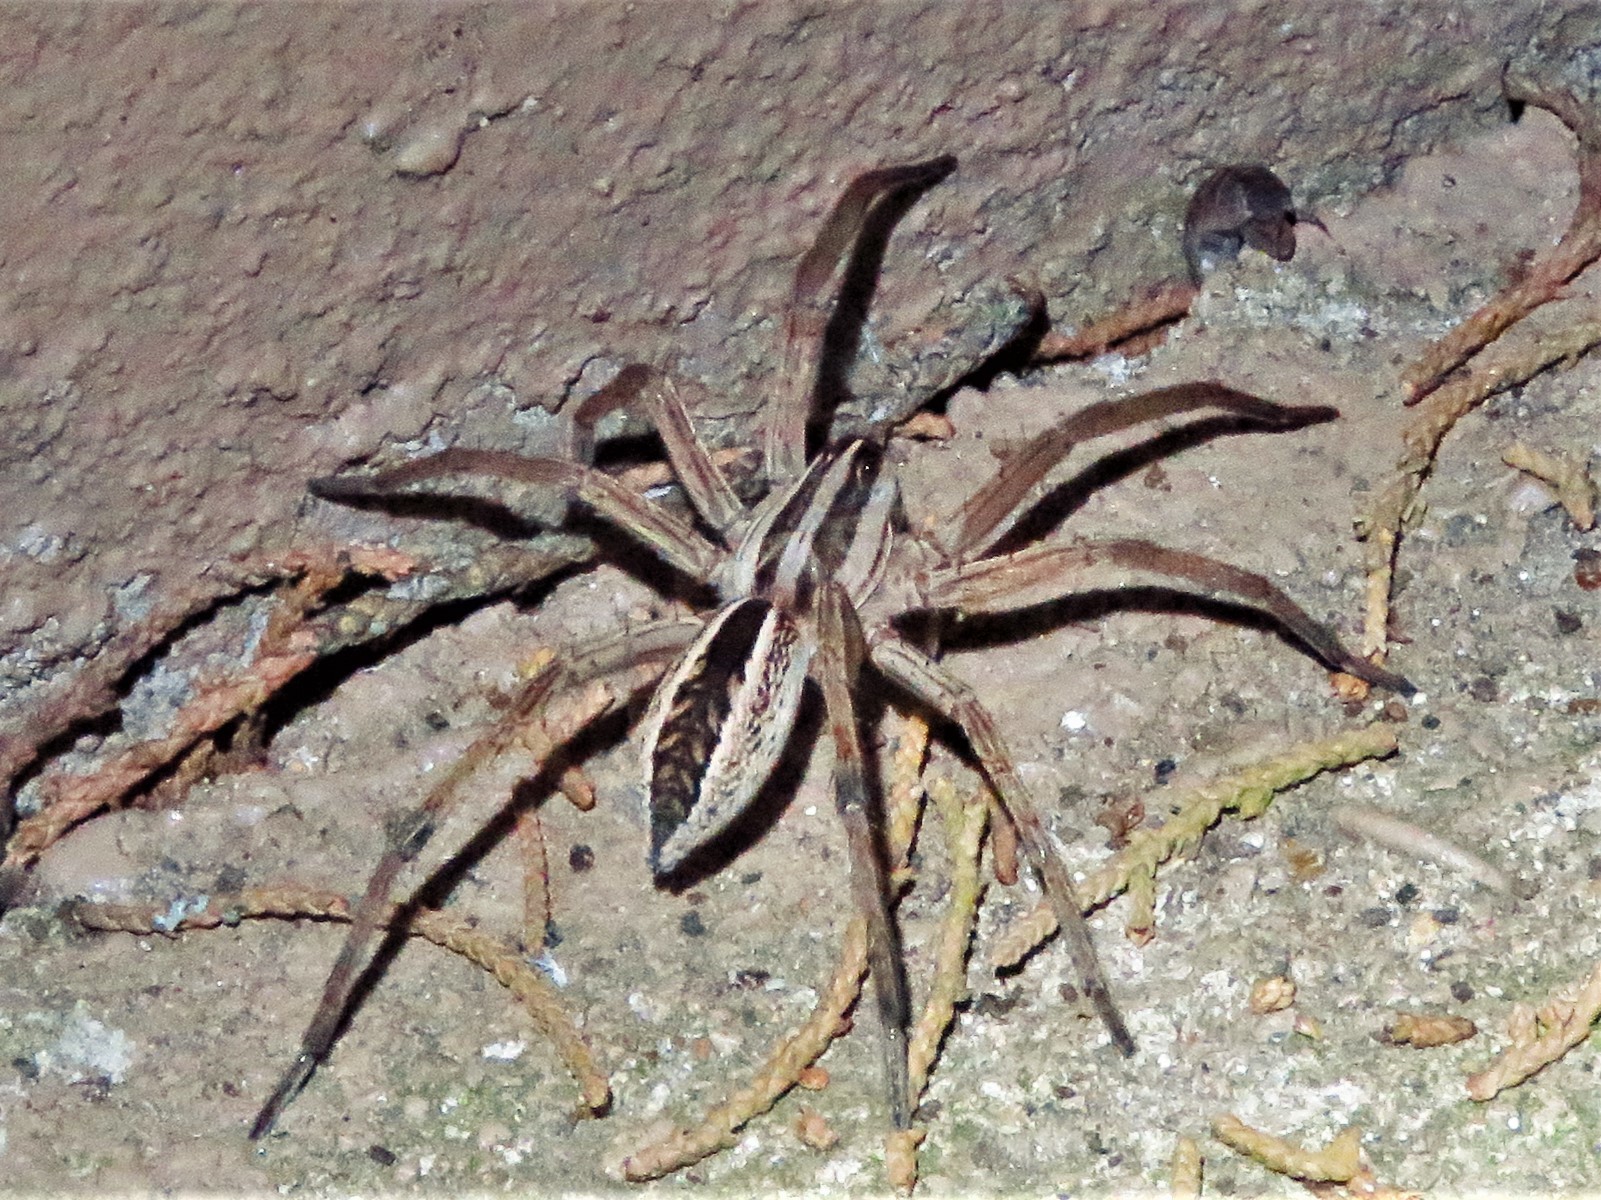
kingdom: Animalia
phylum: Arthropoda
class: Arachnida
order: Araneae
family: Lycosidae
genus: Rabidosa
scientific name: Rabidosa rabida
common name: Rabid wolf spider
